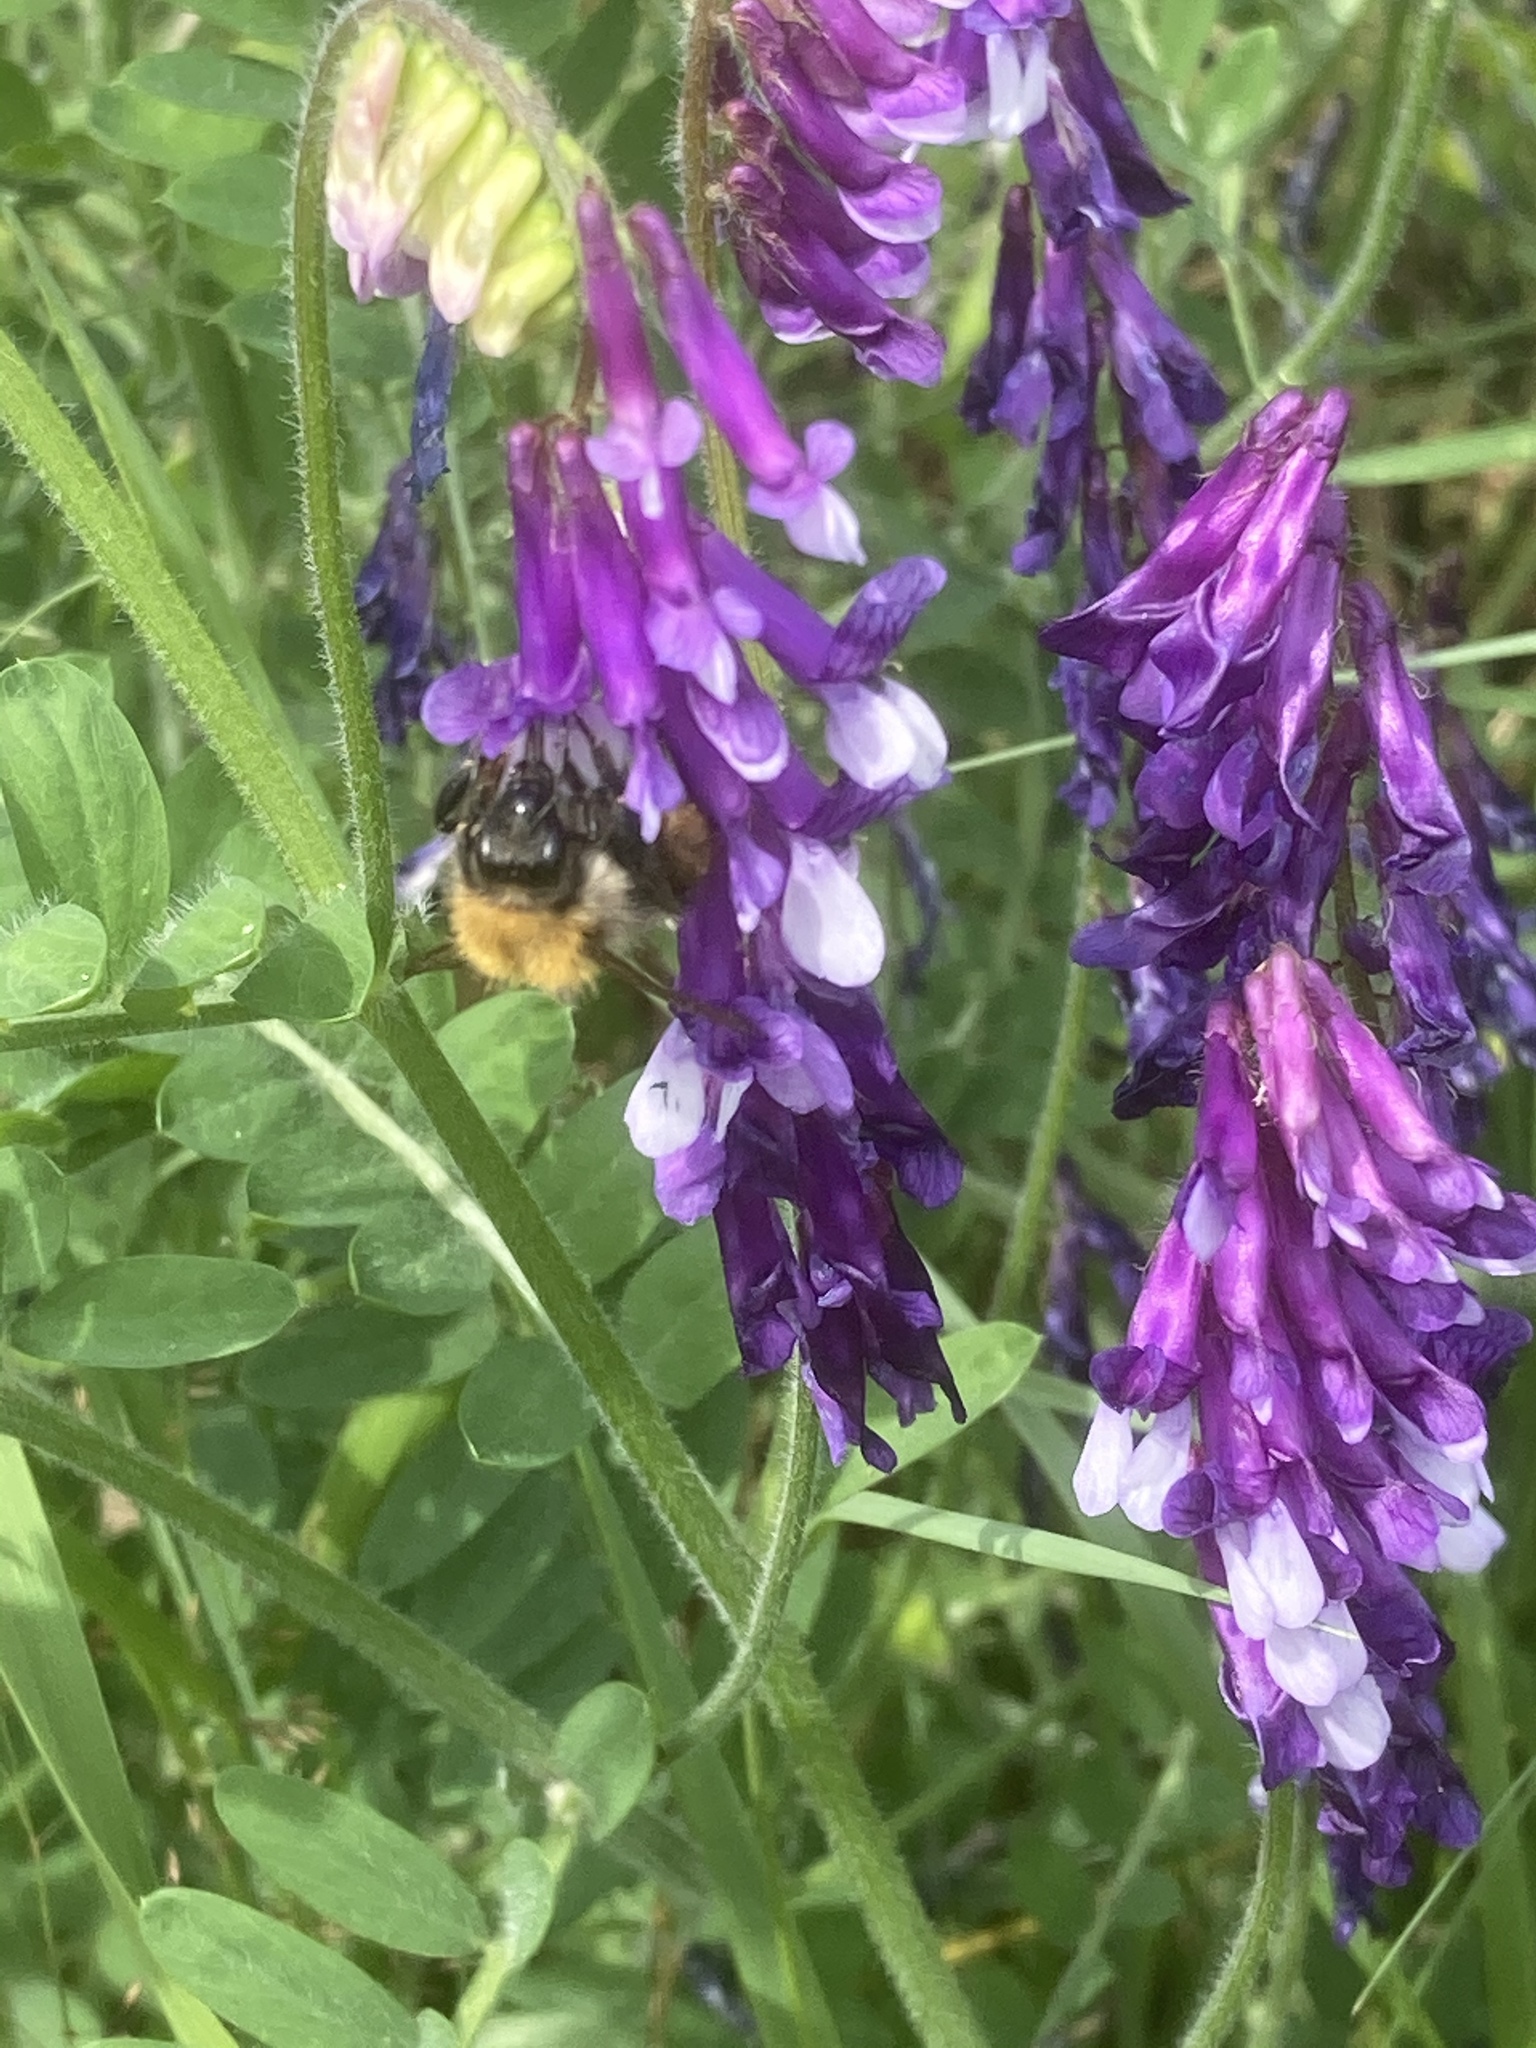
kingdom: Plantae
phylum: Tracheophyta
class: Magnoliopsida
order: Fabales
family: Fabaceae
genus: Vicia
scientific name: Vicia villosa
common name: Fodder vetch
